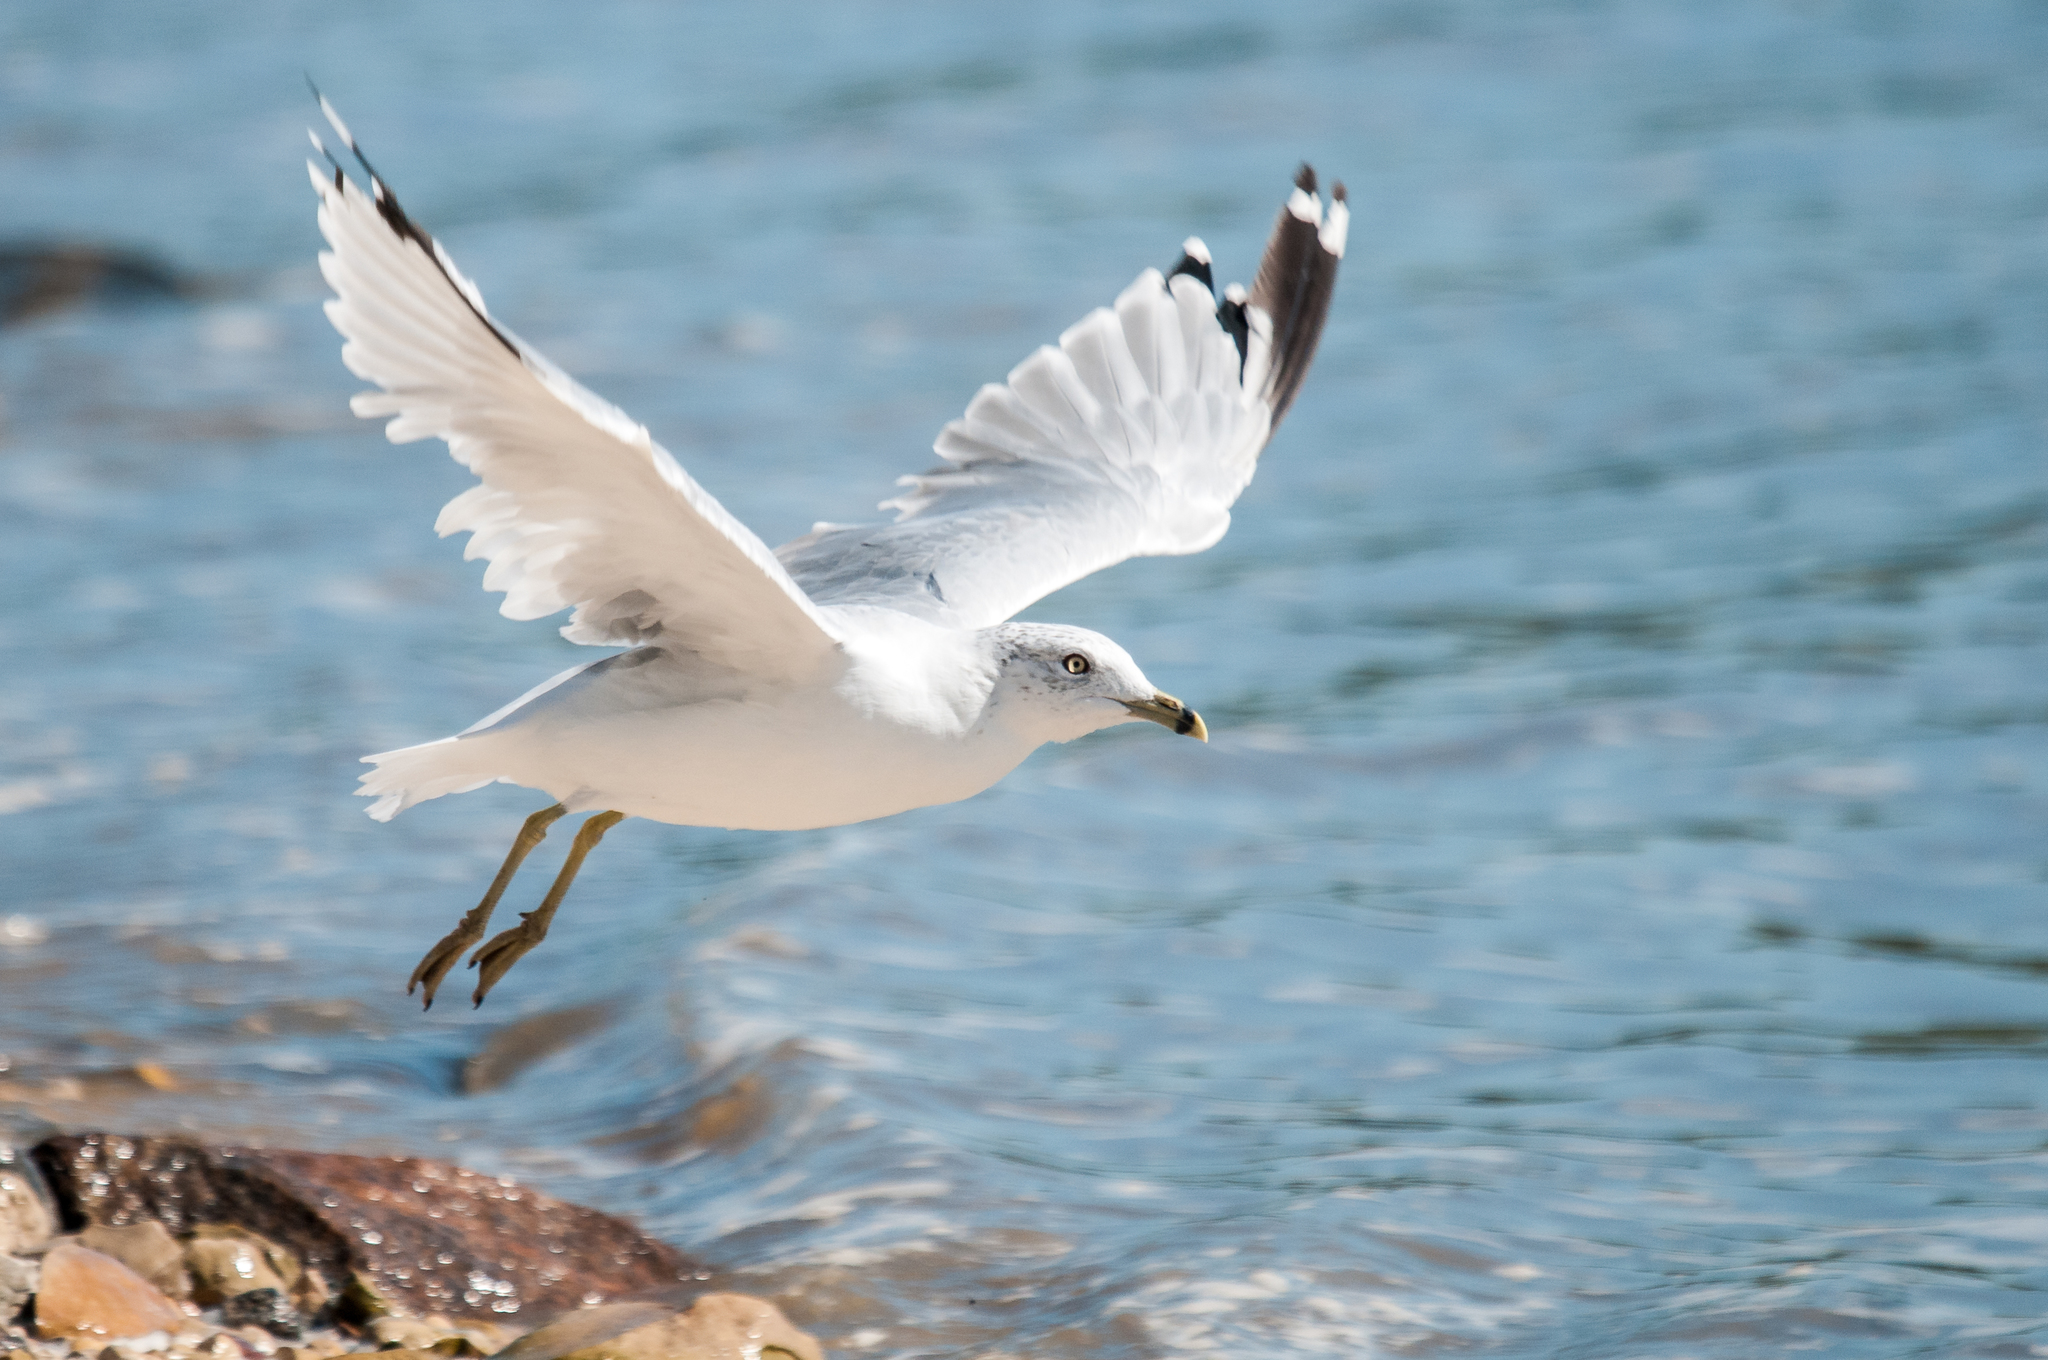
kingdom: Animalia
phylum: Chordata
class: Aves
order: Charadriiformes
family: Laridae
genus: Larus
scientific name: Larus delawarensis
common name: Ring-billed gull
